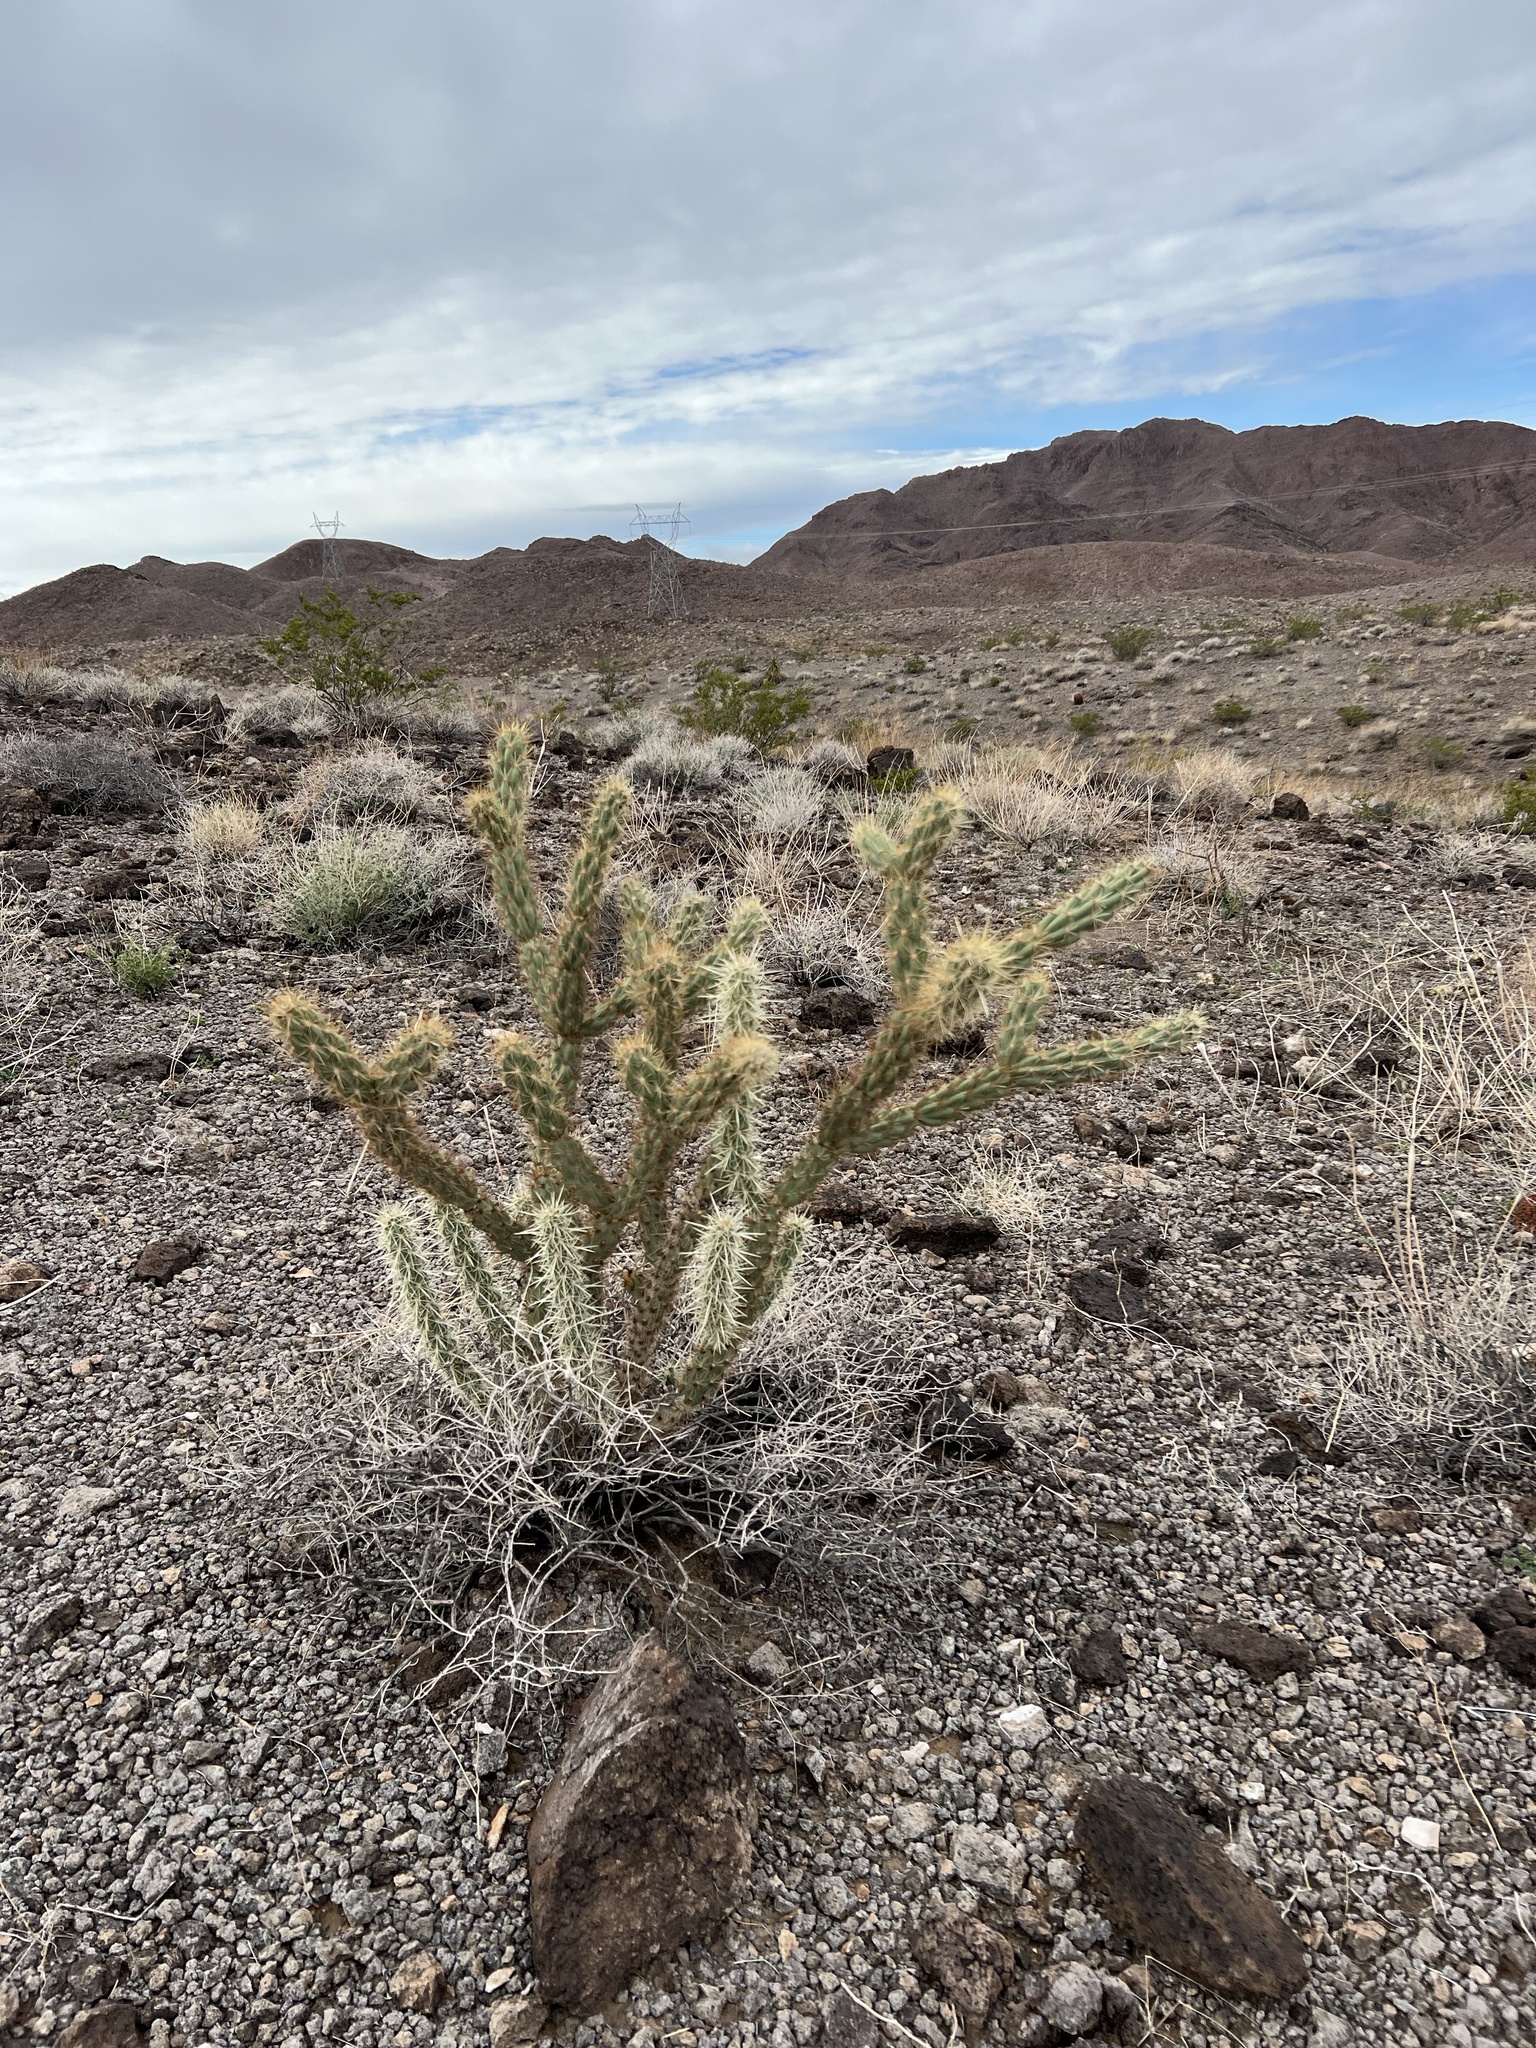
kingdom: Plantae
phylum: Tracheophyta
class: Magnoliopsida
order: Caryophyllales
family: Cactaceae
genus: Cylindropuntia
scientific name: Cylindropuntia acanthocarpa
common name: Buckhorn cholla
